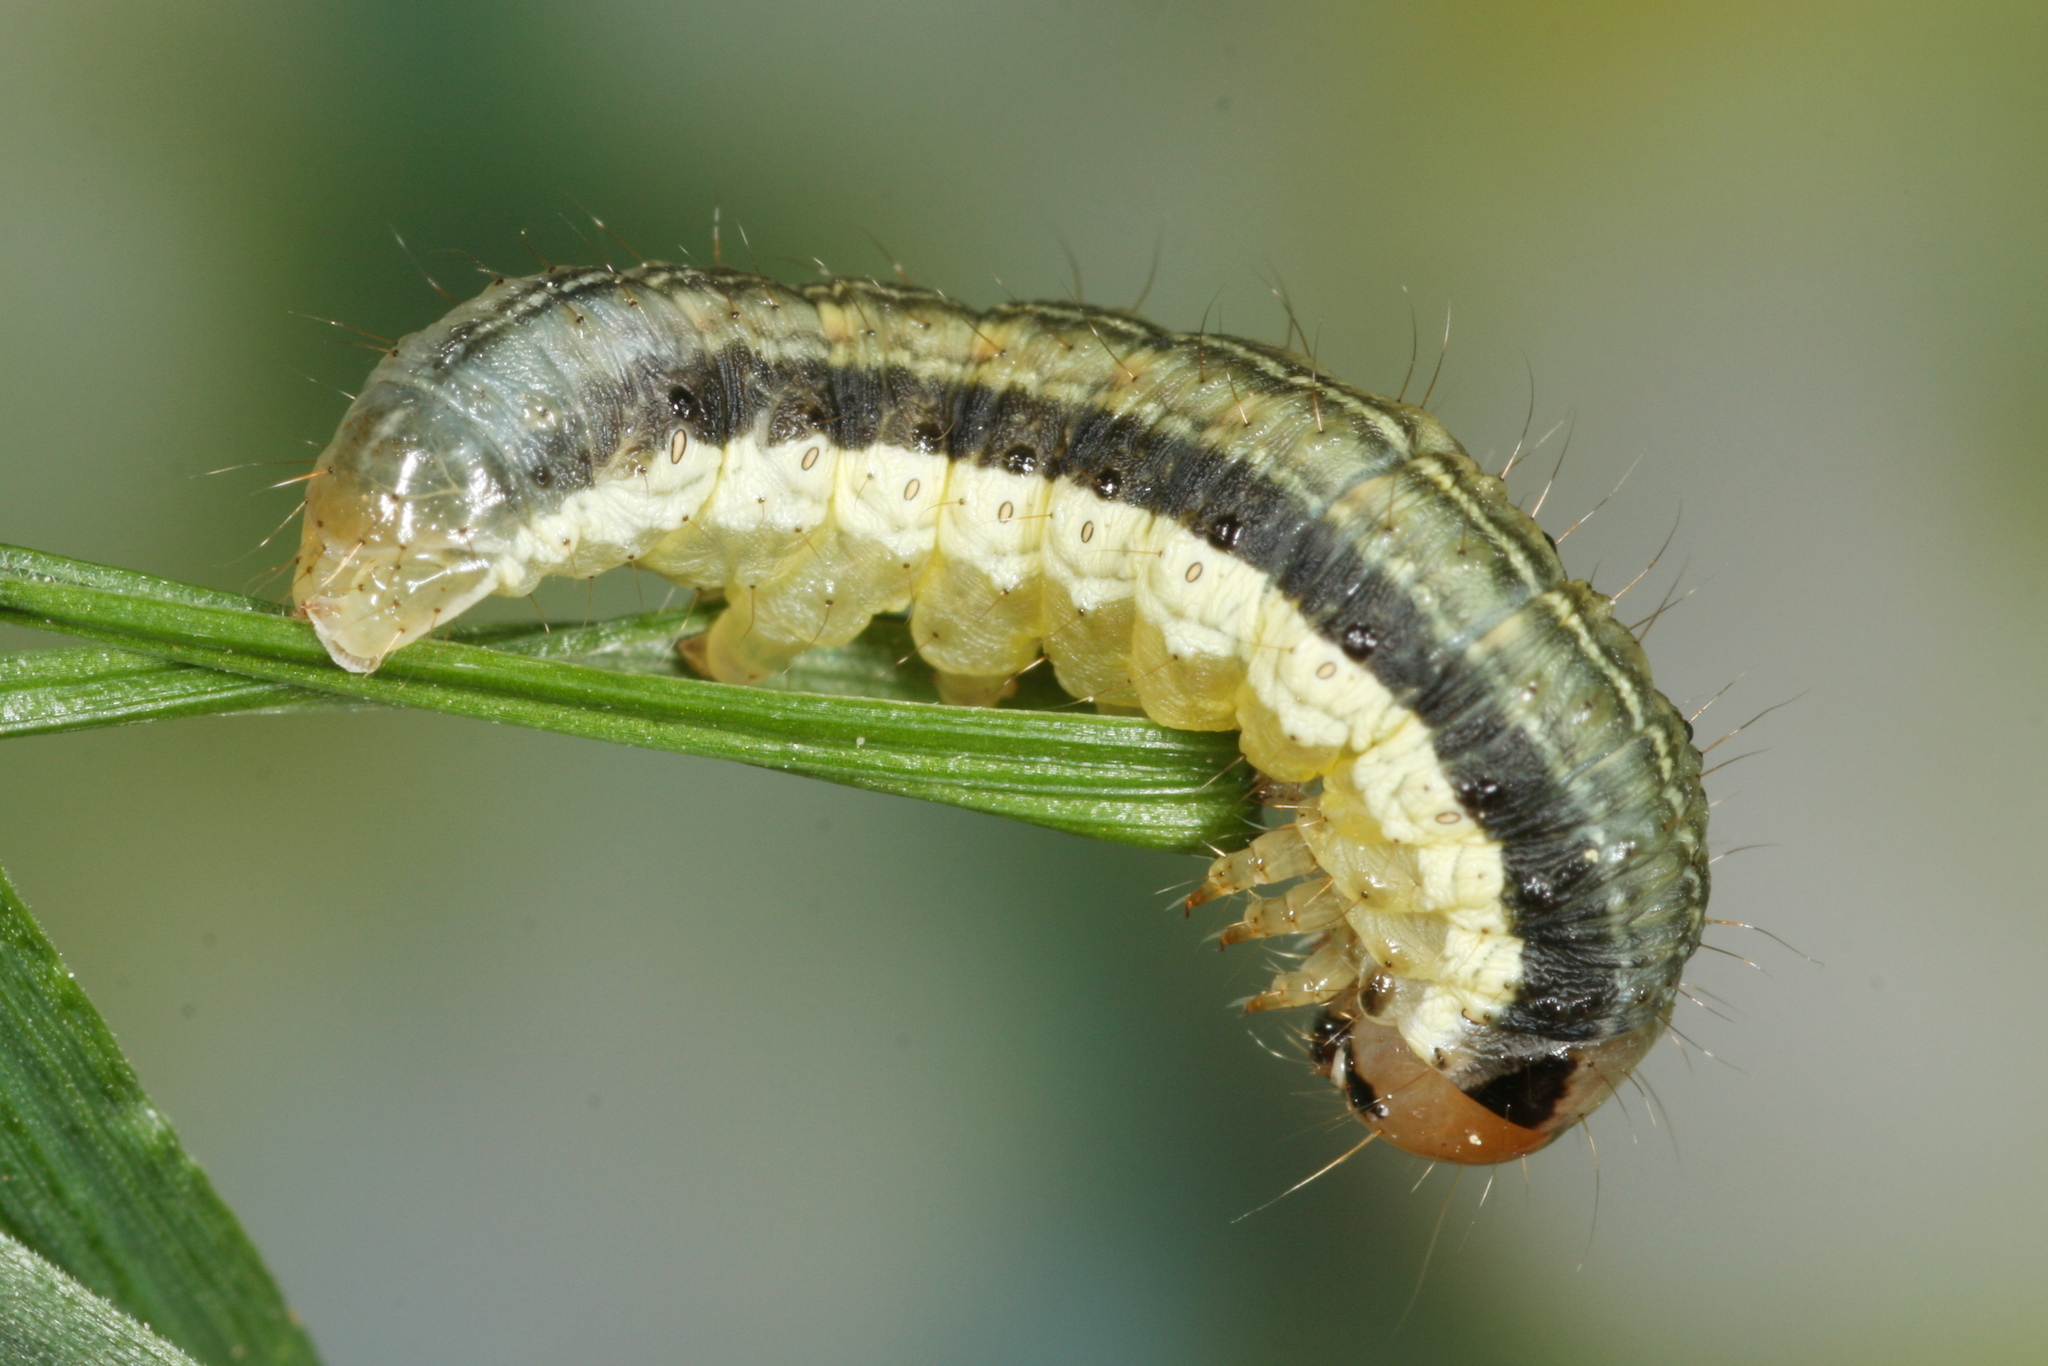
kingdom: Animalia
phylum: Arthropoda
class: Insecta
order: Lepidoptera
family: Noctuidae
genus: Loscopia
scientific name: Loscopia scolopacina
